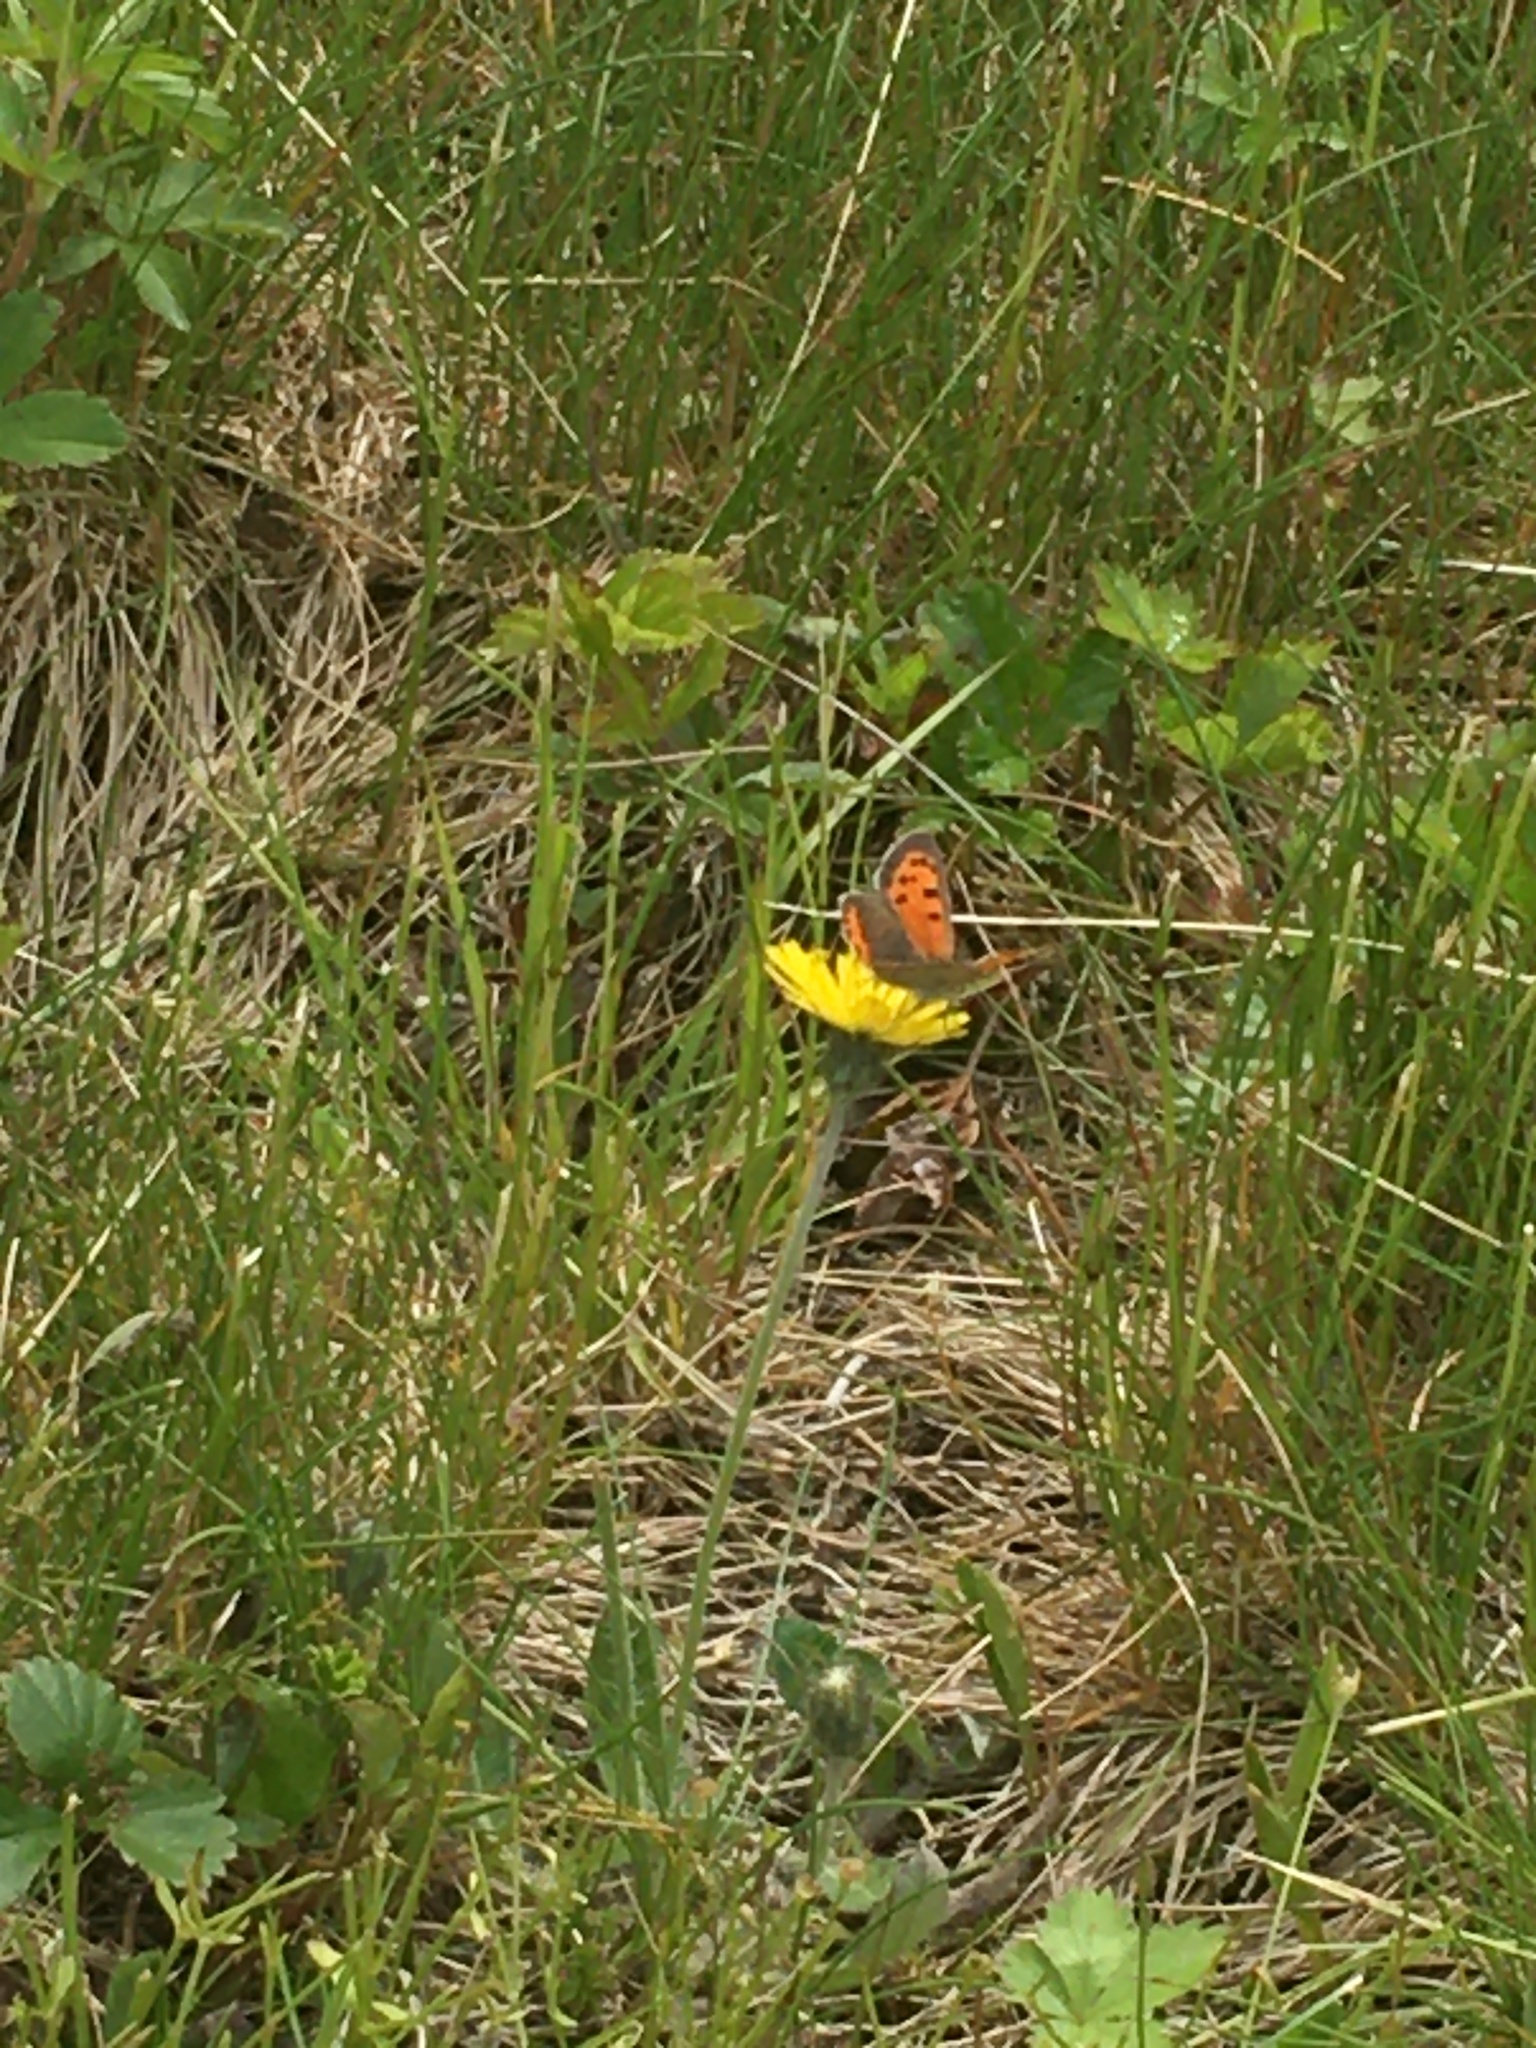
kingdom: Animalia
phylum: Arthropoda
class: Insecta
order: Lepidoptera
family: Lycaenidae
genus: Lycaena
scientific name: Lycaena hypophlaeas
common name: American copper
